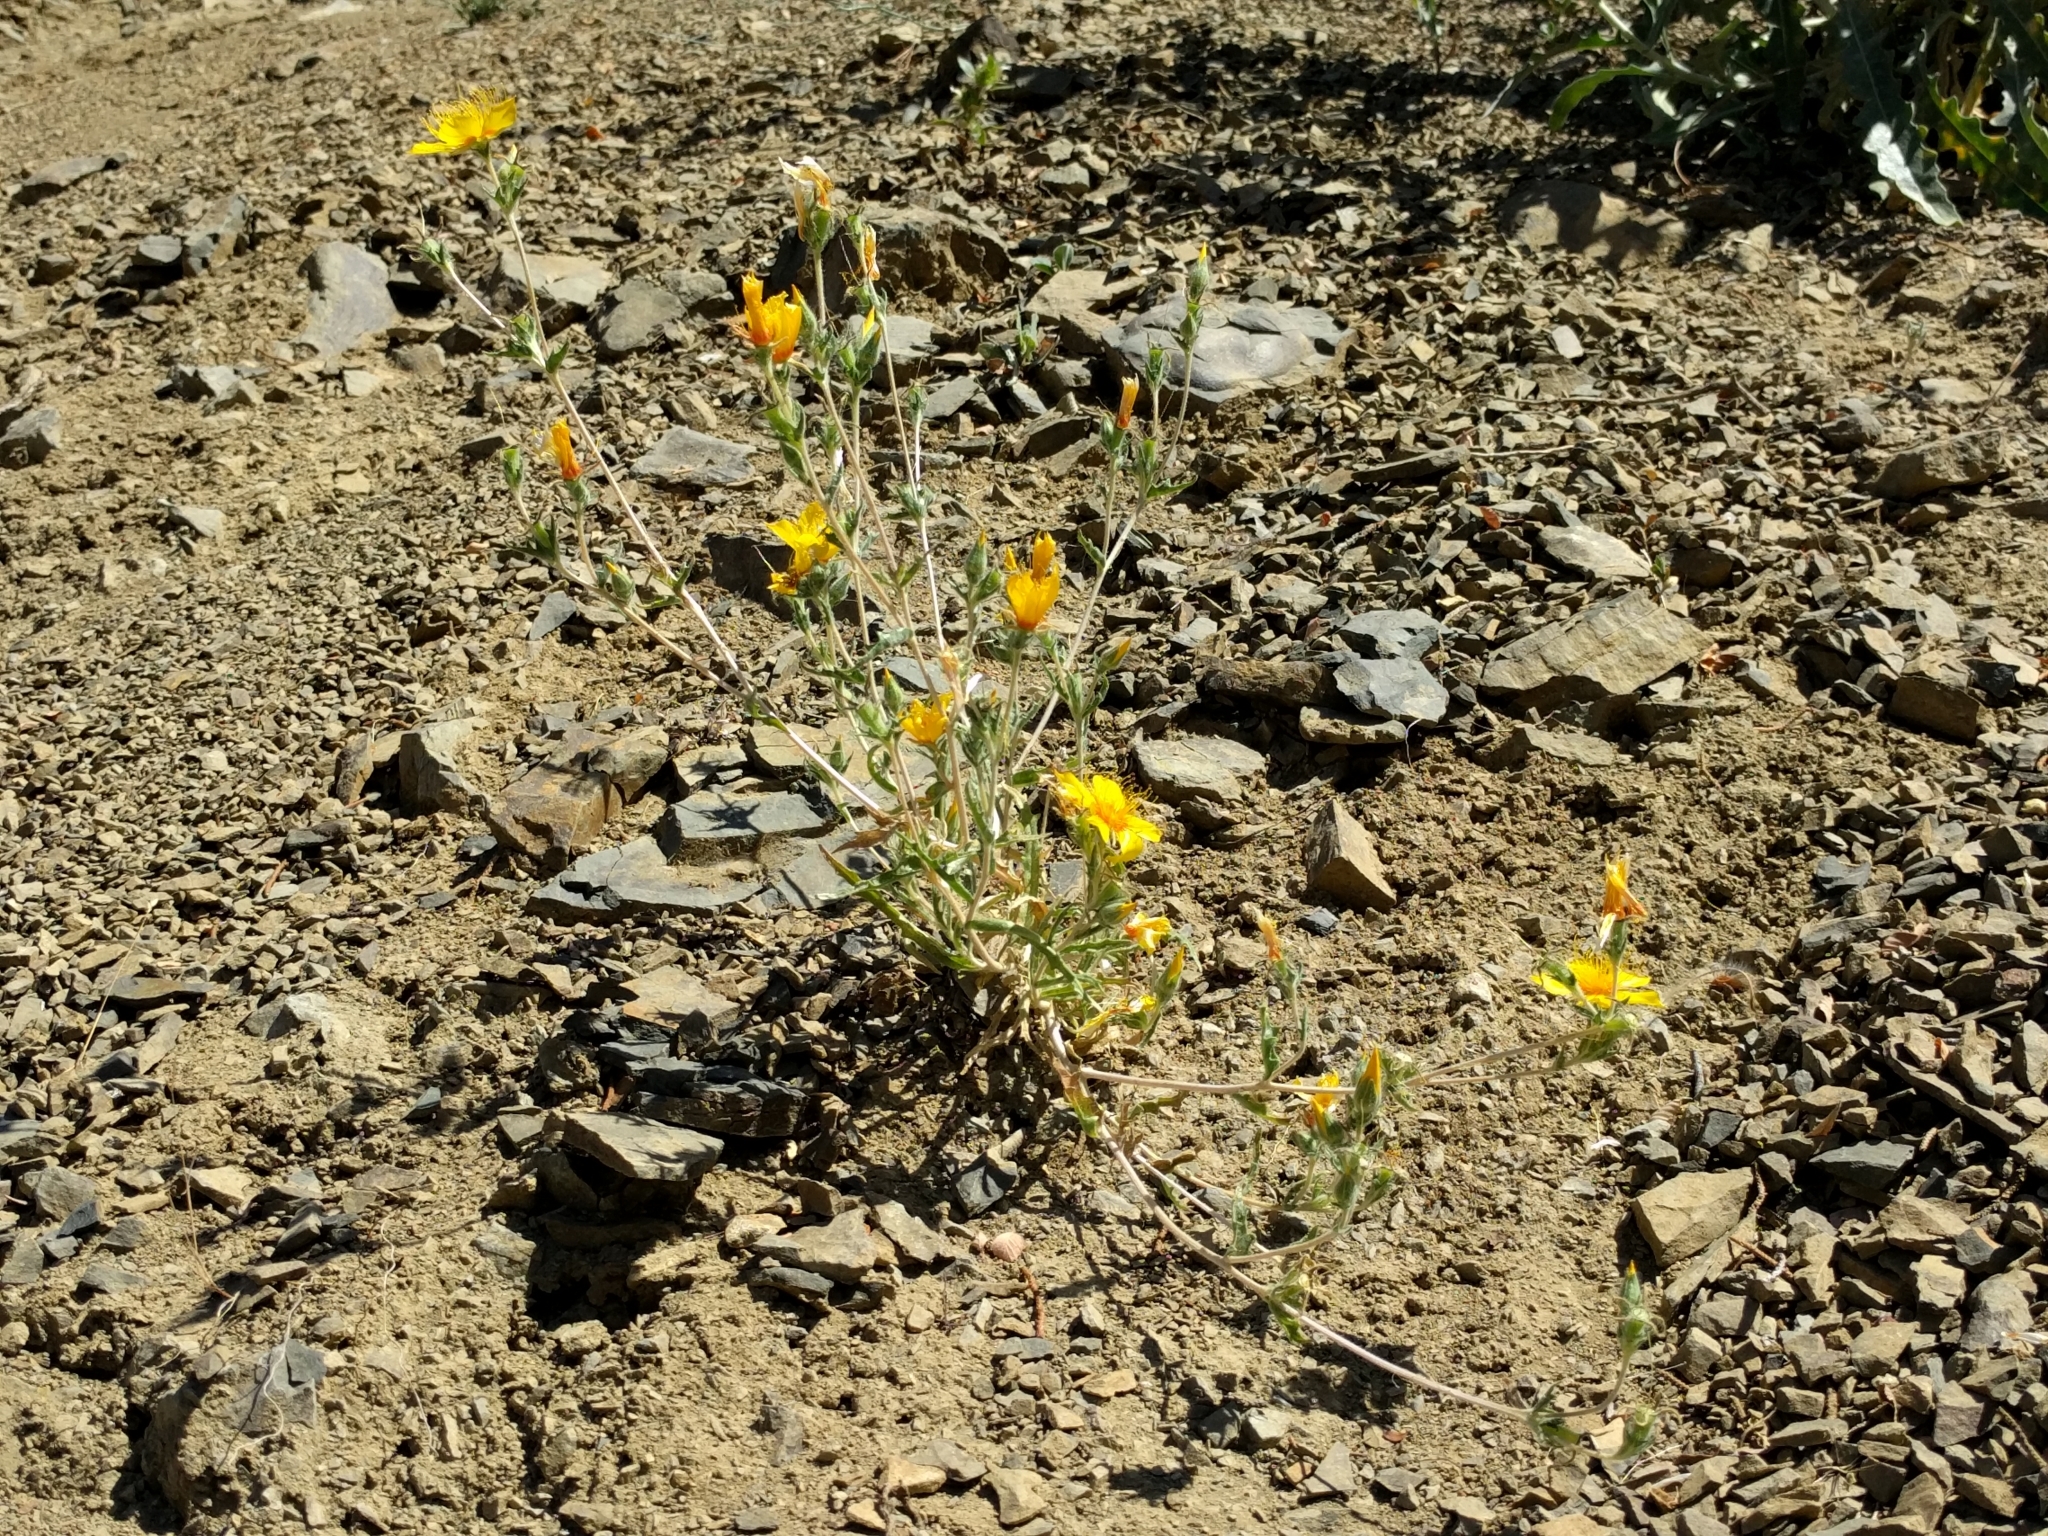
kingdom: Plantae
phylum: Tracheophyta
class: Magnoliopsida
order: Cornales
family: Loasaceae
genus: Mentzelia
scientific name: Mentzelia lindleyi
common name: Golden bartonia
